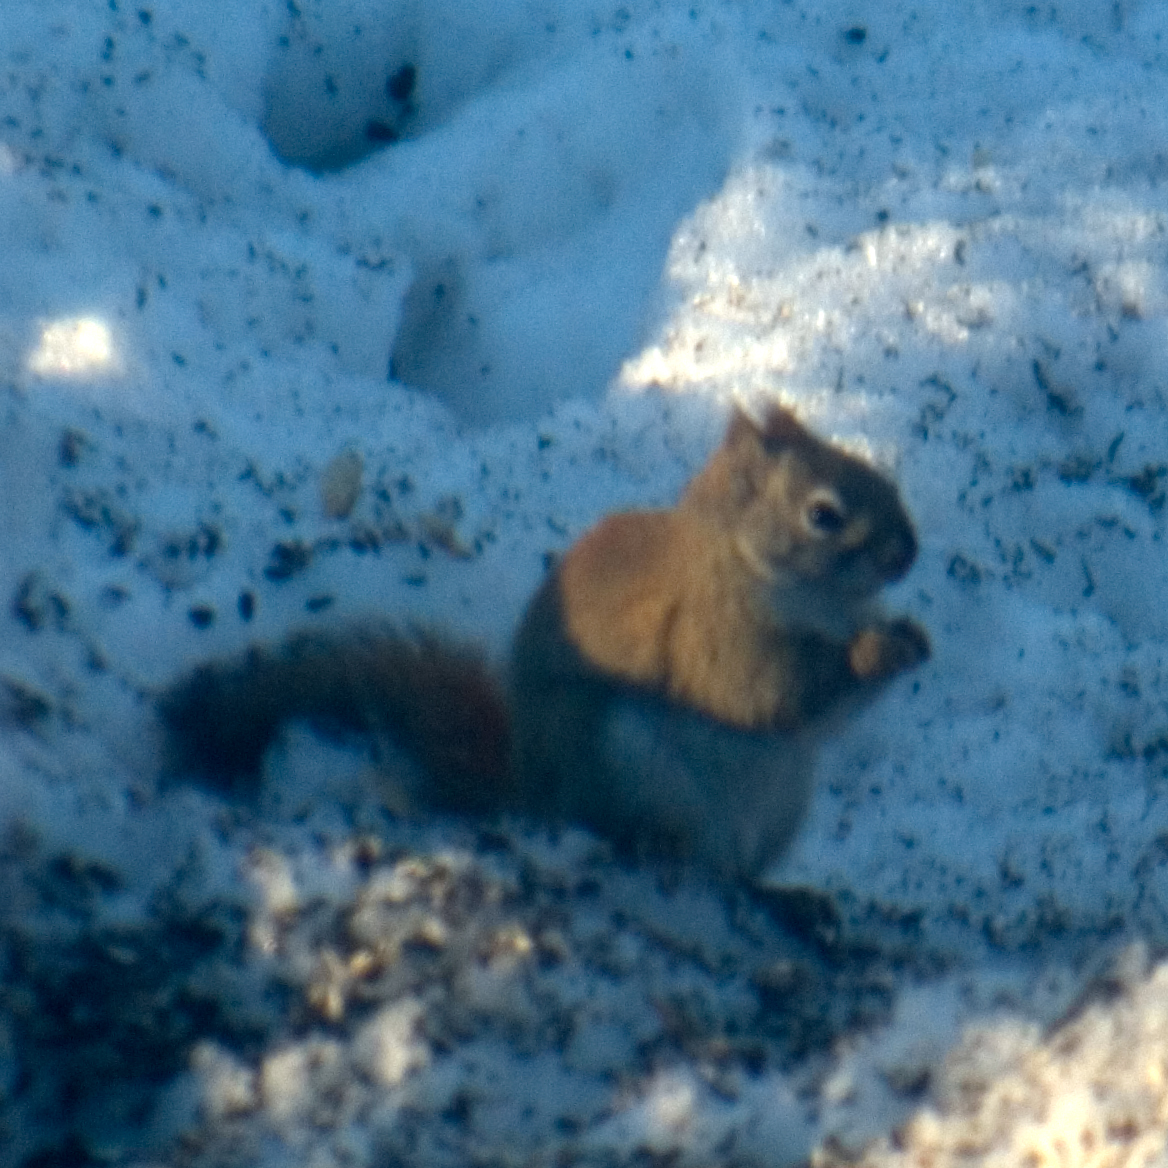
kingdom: Animalia
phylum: Chordata
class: Mammalia
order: Rodentia
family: Sciuridae
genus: Tamiasciurus
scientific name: Tamiasciurus hudsonicus
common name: Red squirrel
